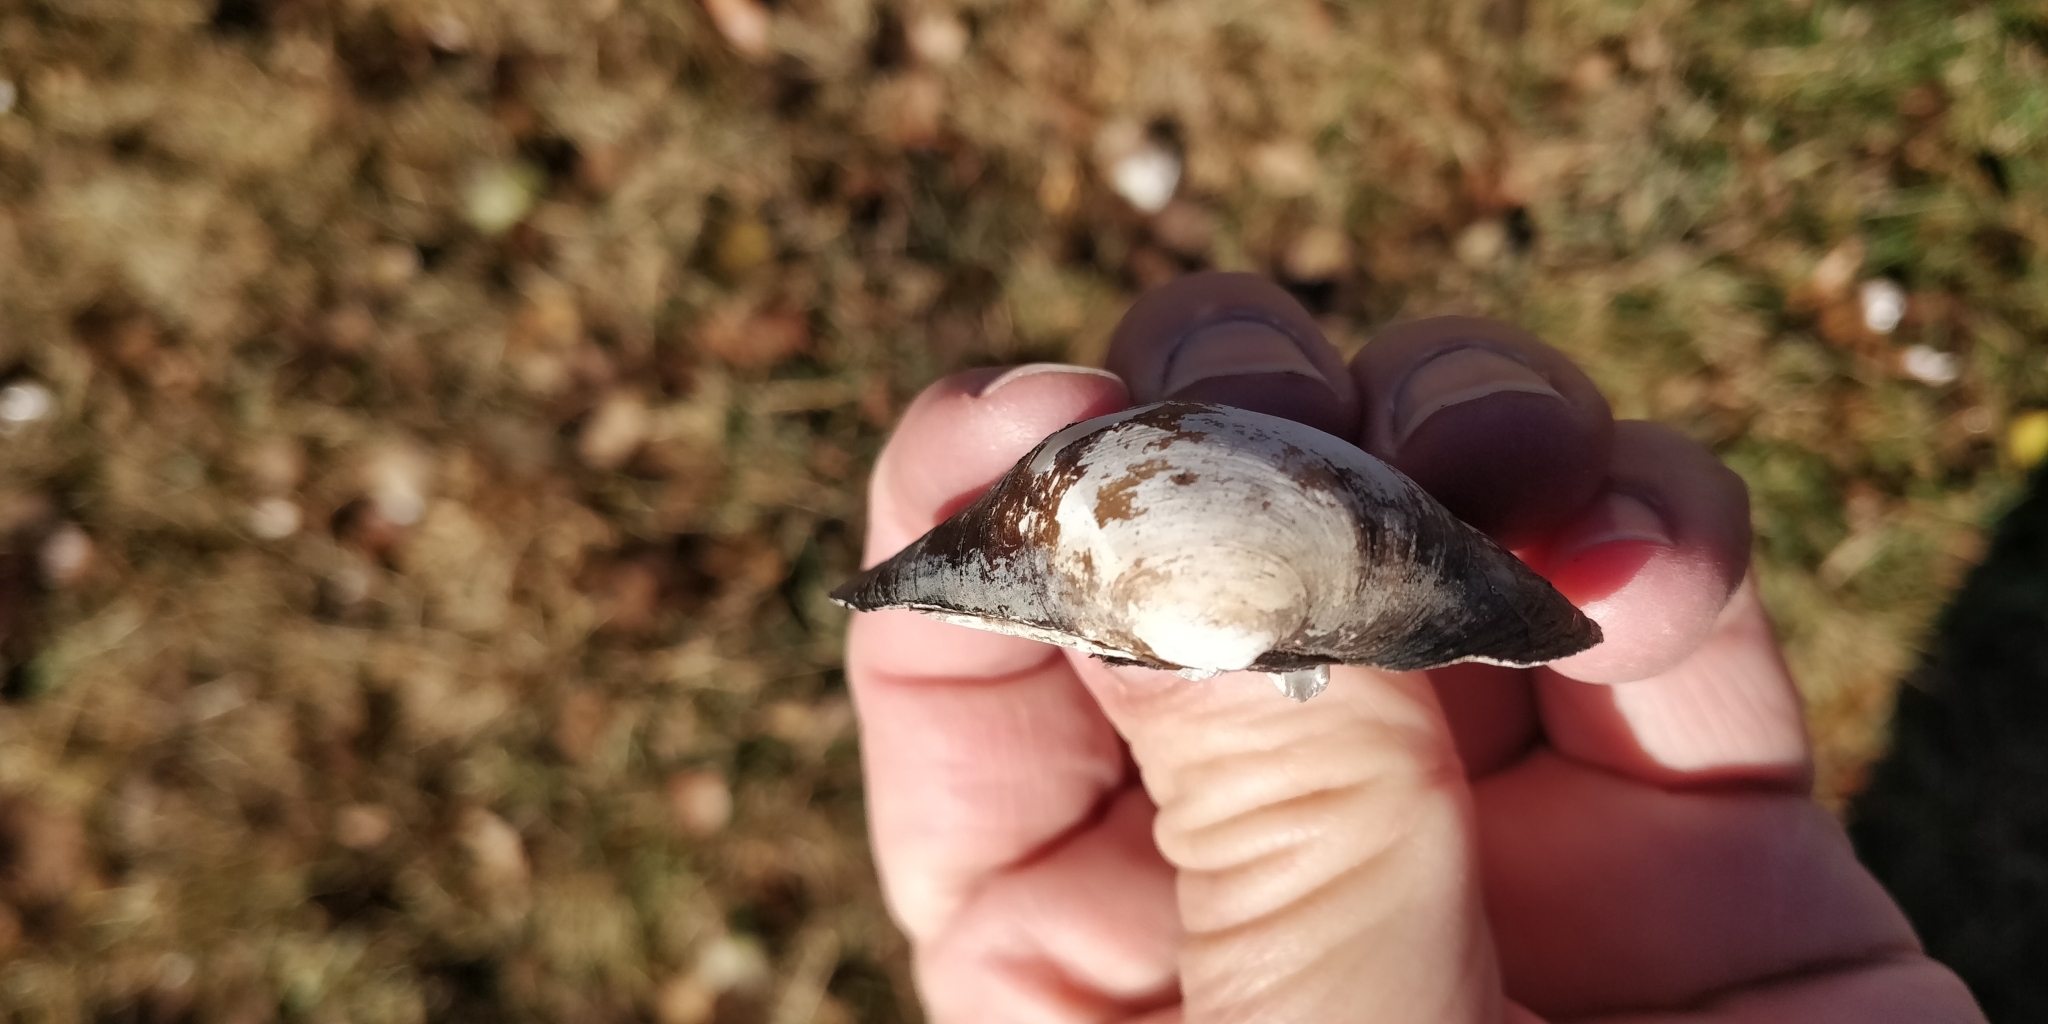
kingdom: Animalia
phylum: Mollusca
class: Bivalvia
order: Unionida
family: Unionidae
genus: Amblema
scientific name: Amblema plicata
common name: Threeridge
